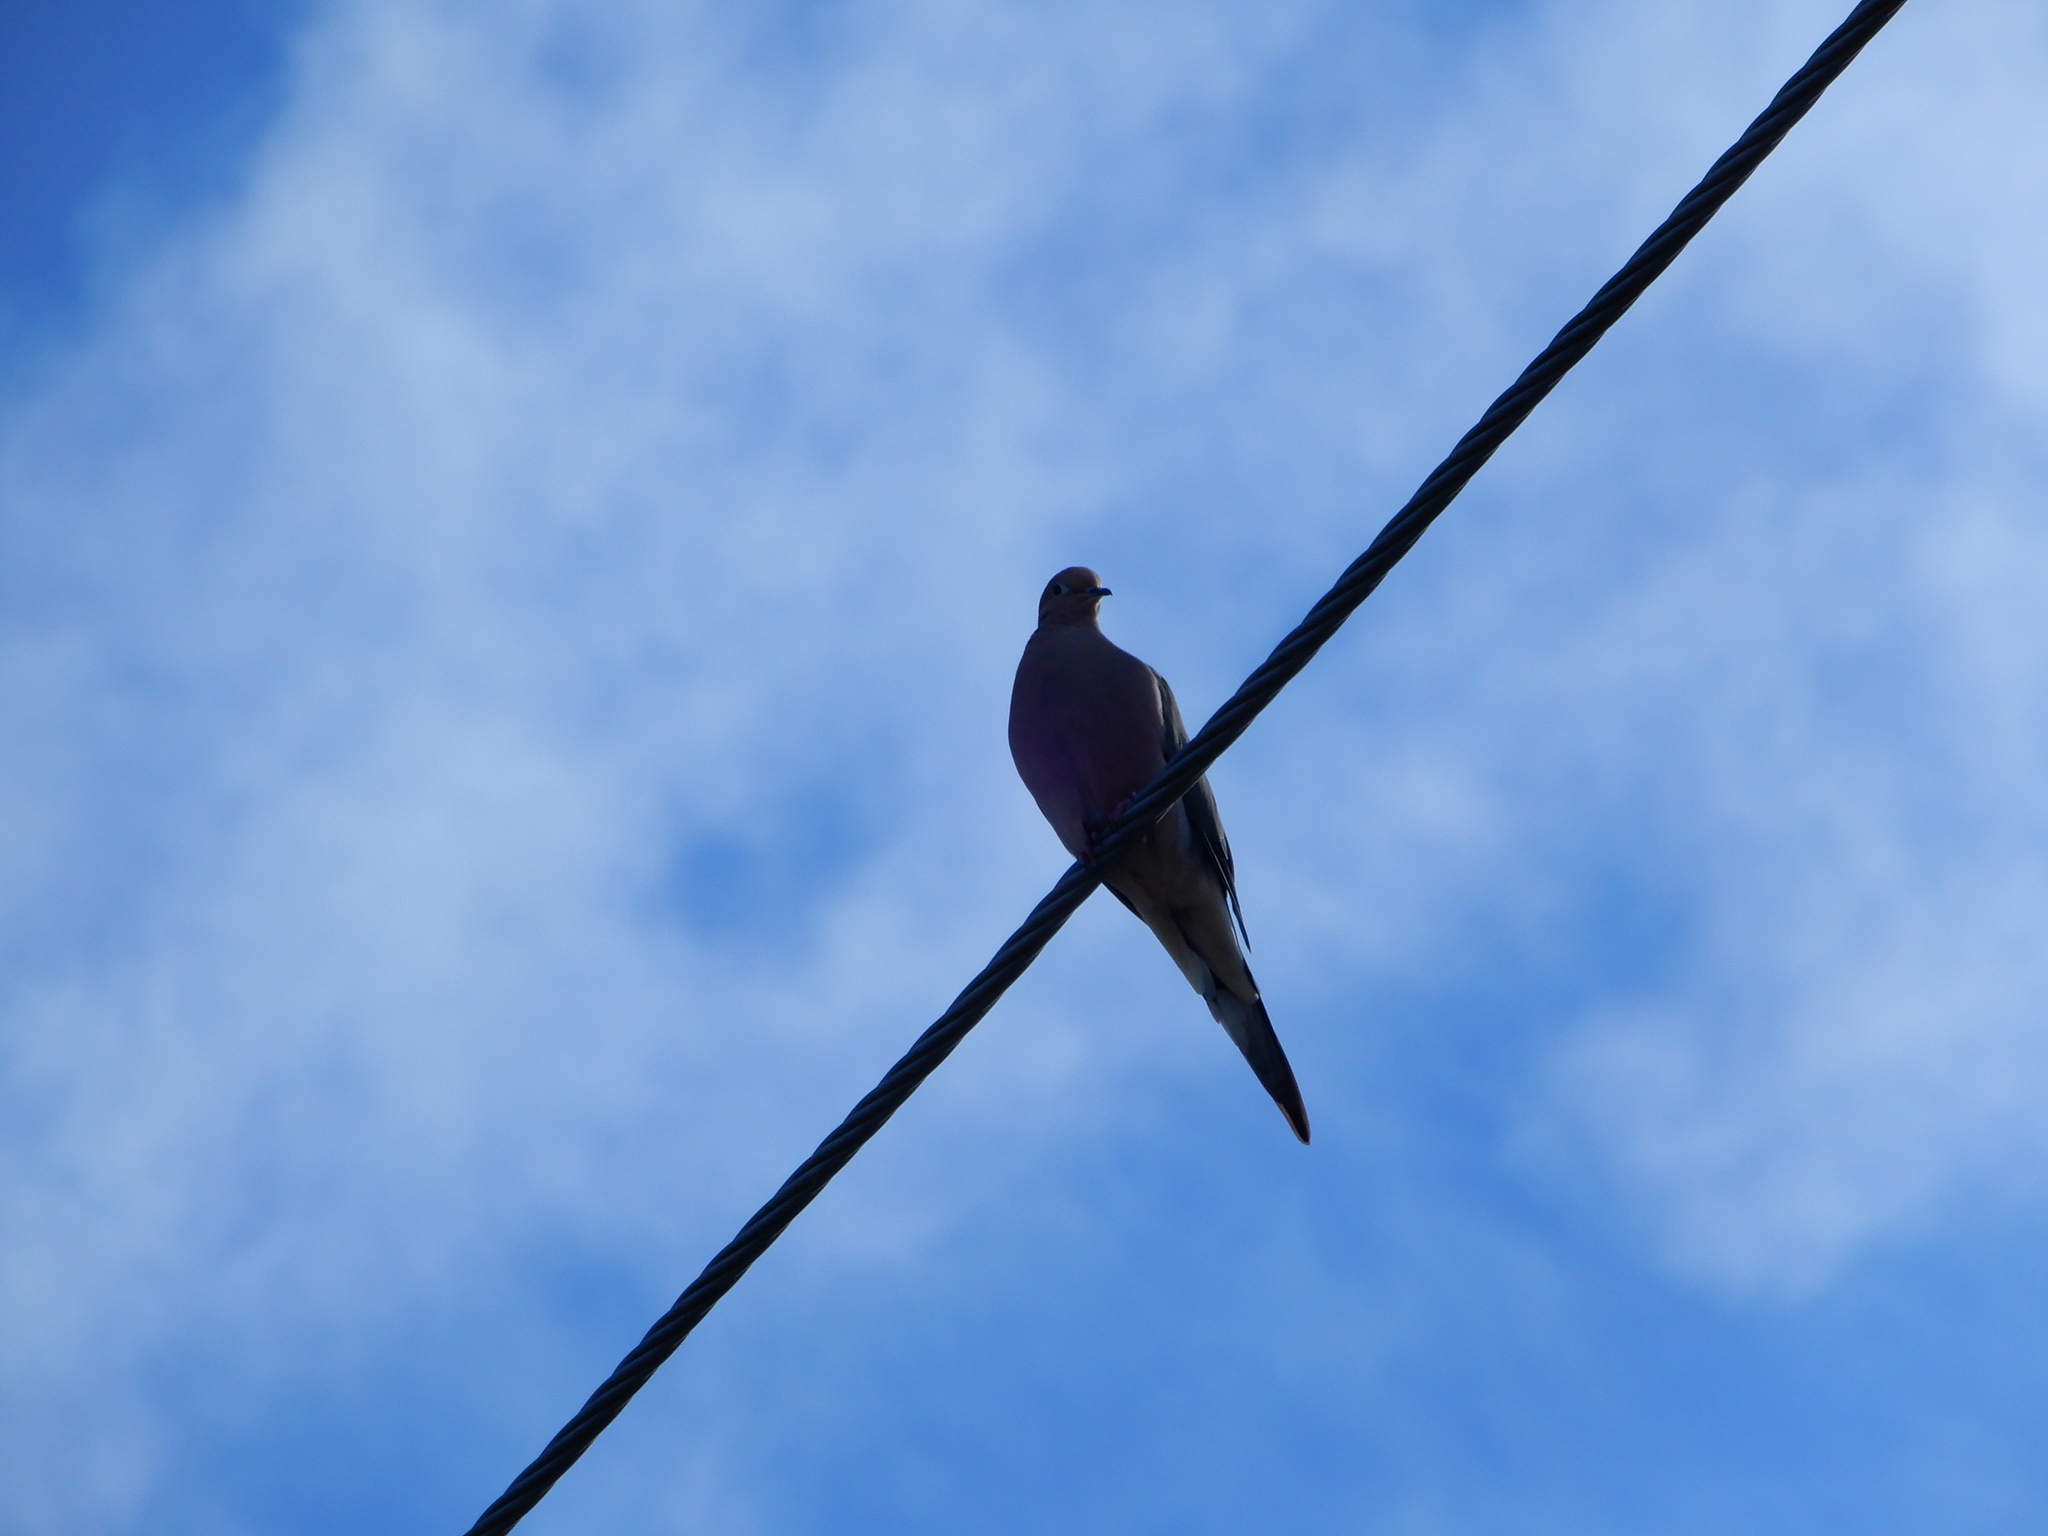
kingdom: Animalia
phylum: Chordata
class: Aves
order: Columbiformes
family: Columbidae
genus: Zenaida
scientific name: Zenaida macroura
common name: Mourning dove
